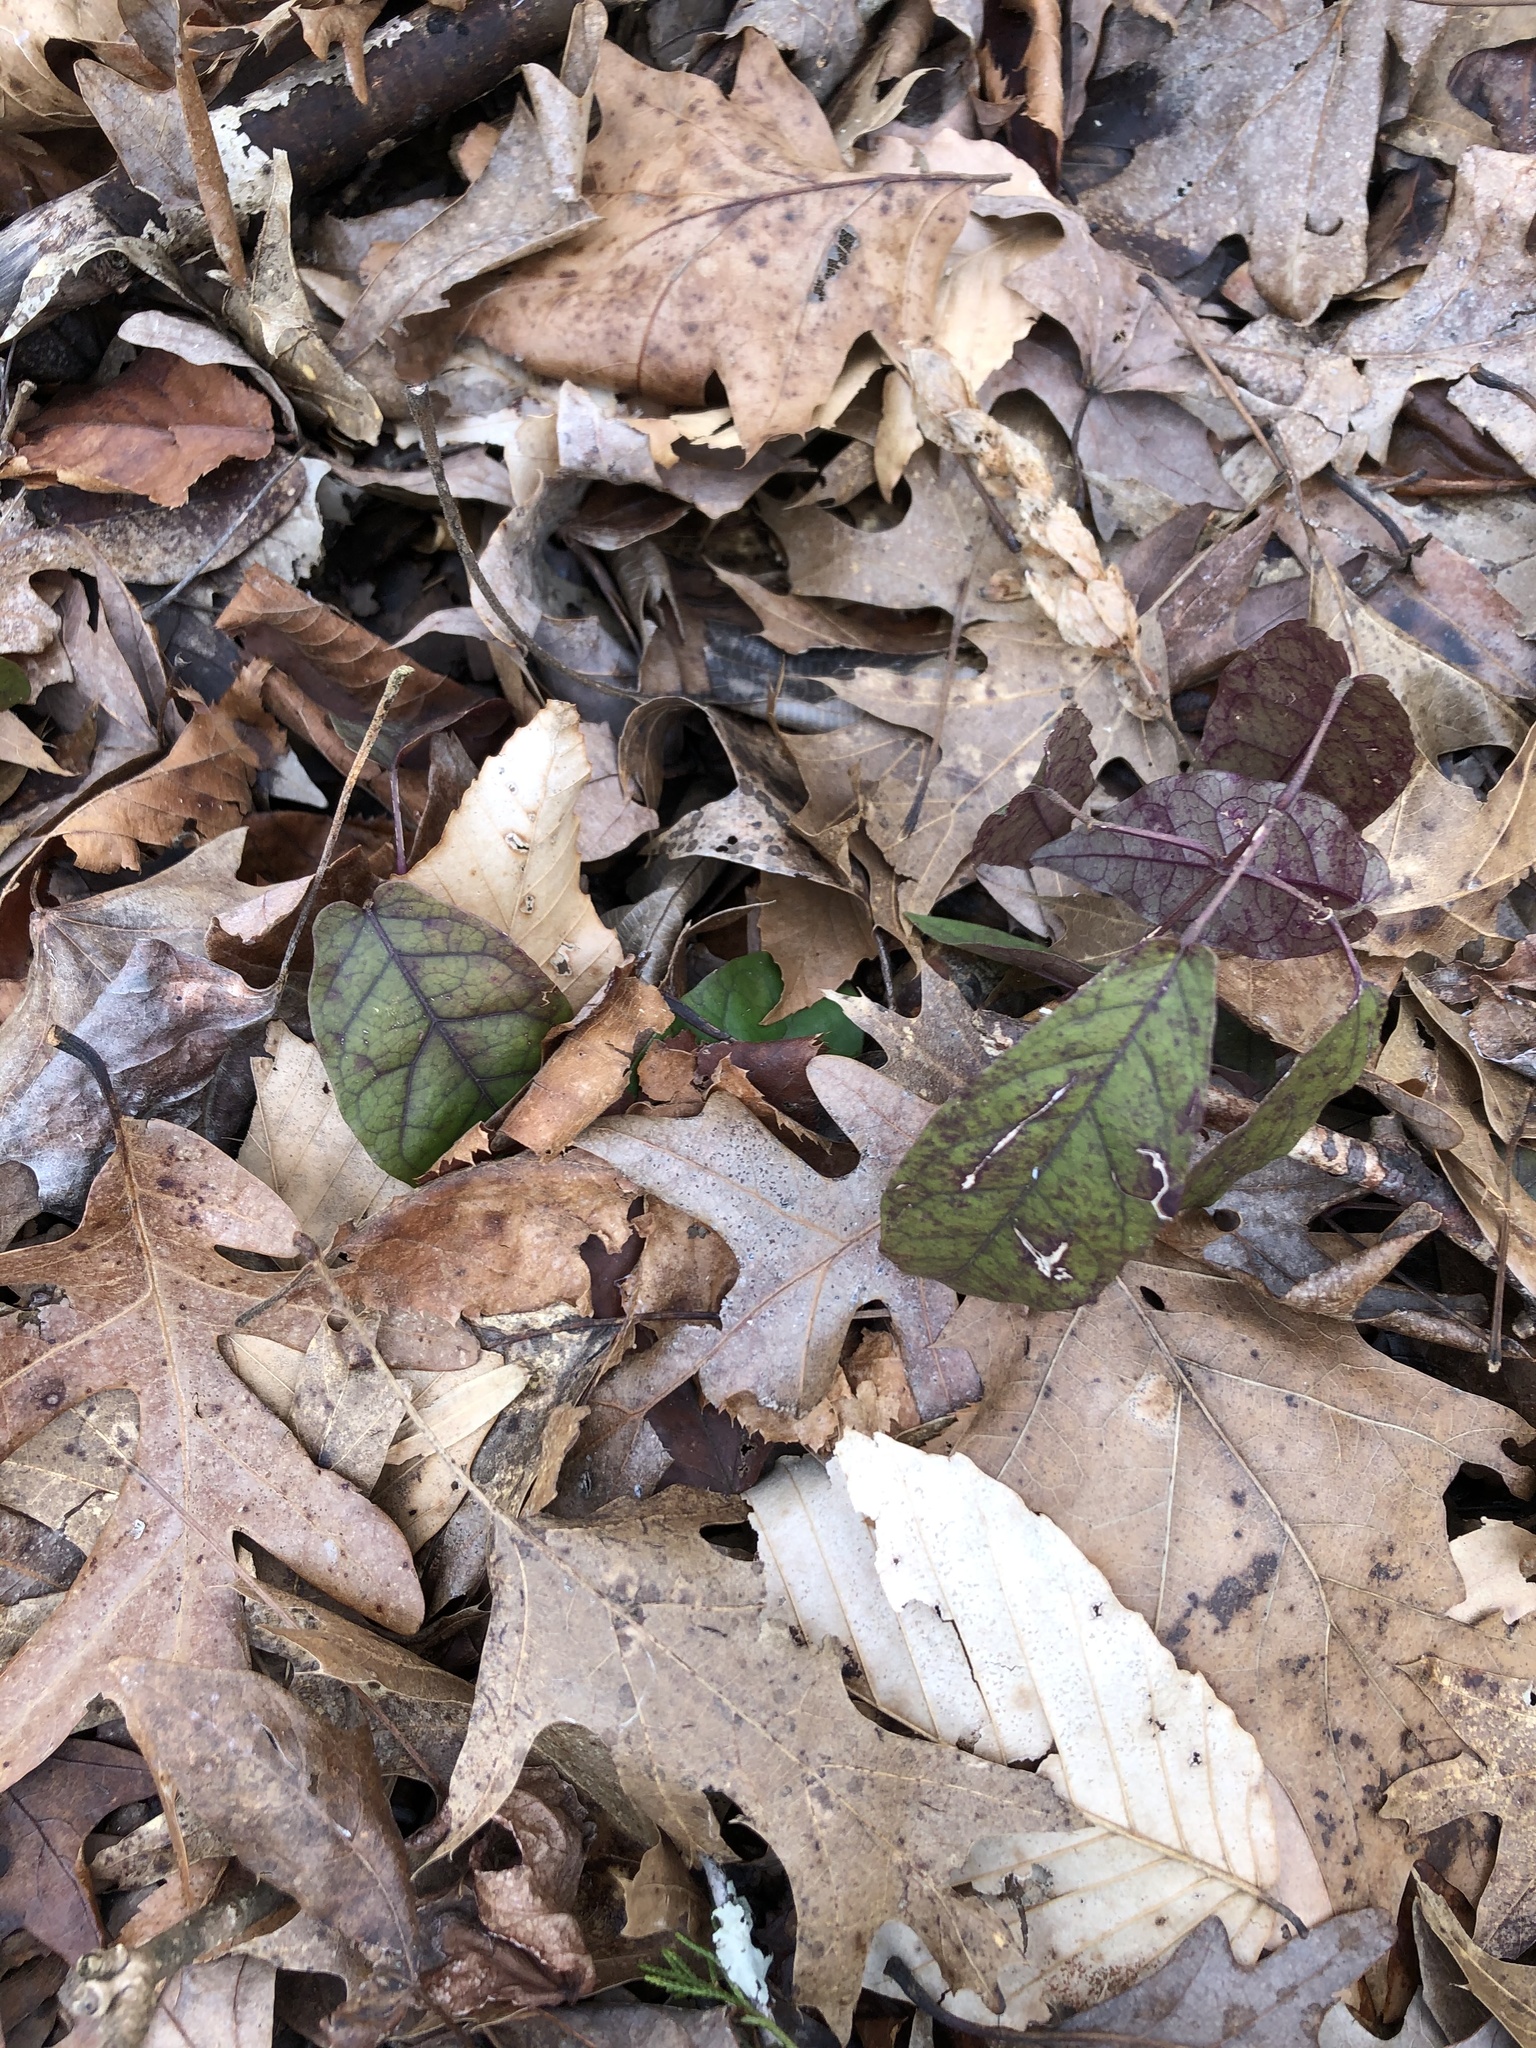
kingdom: Plantae
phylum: Tracheophyta
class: Magnoliopsida
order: Lamiales
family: Bignoniaceae
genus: Bignonia
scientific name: Bignonia capreolata
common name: Crossvine
